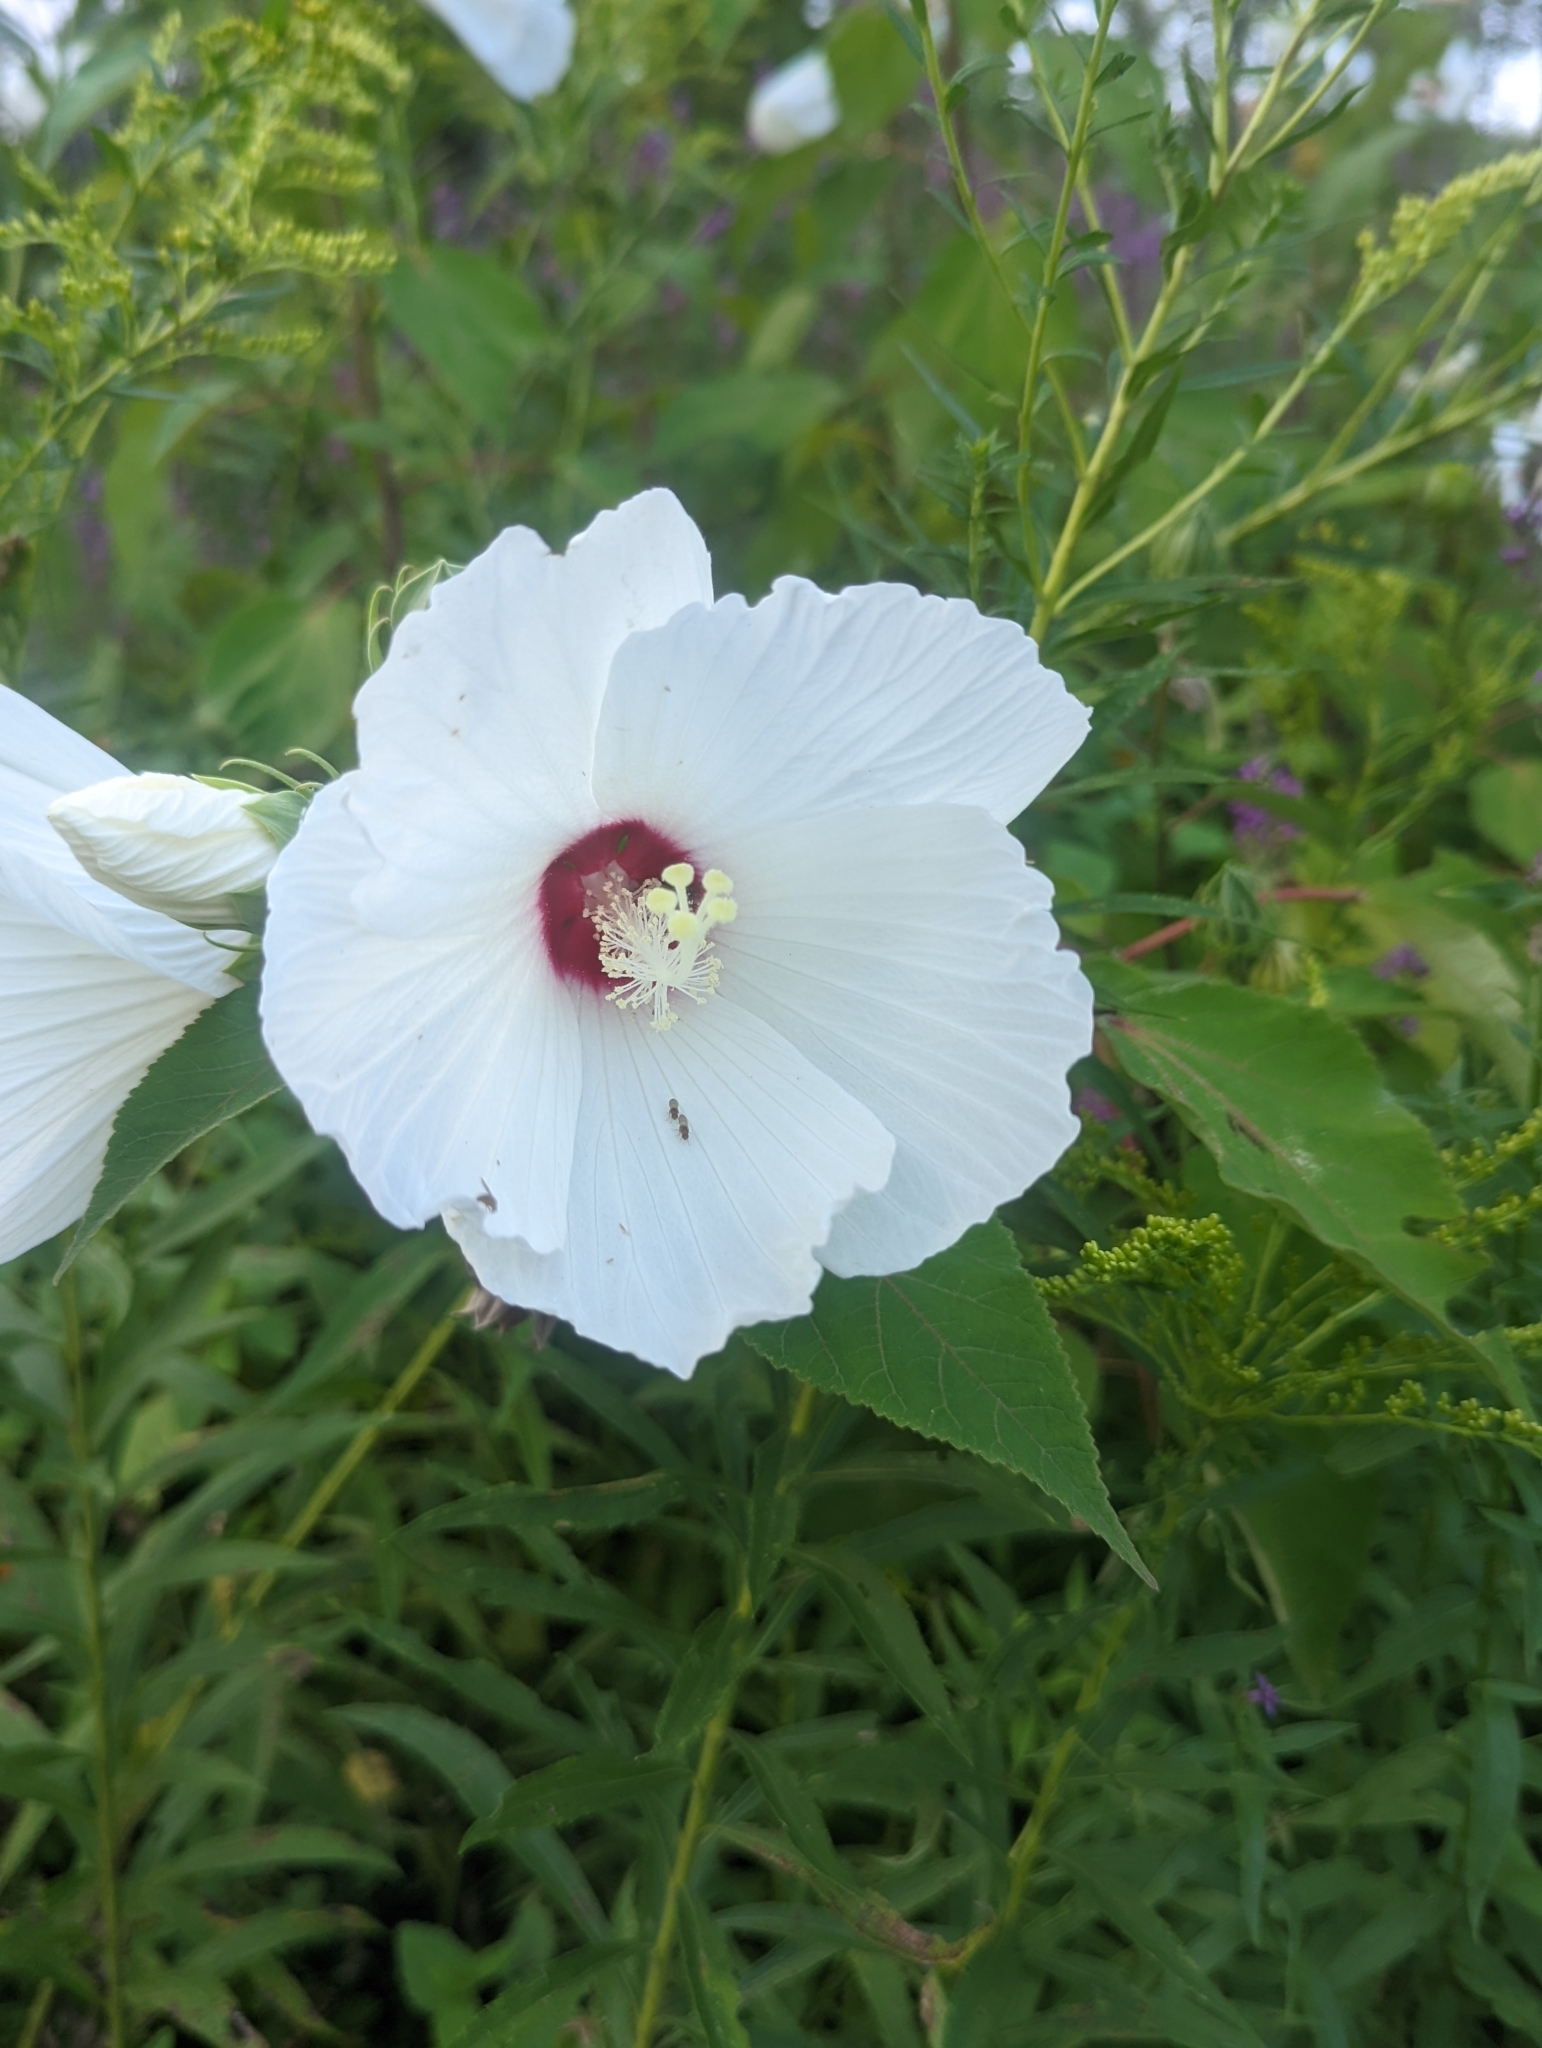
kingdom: Plantae
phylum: Tracheophyta
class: Magnoliopsida
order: Malvales
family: Malvaceae
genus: Hibiscus
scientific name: Hibiscus moscheutos
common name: Common rose-mallow
